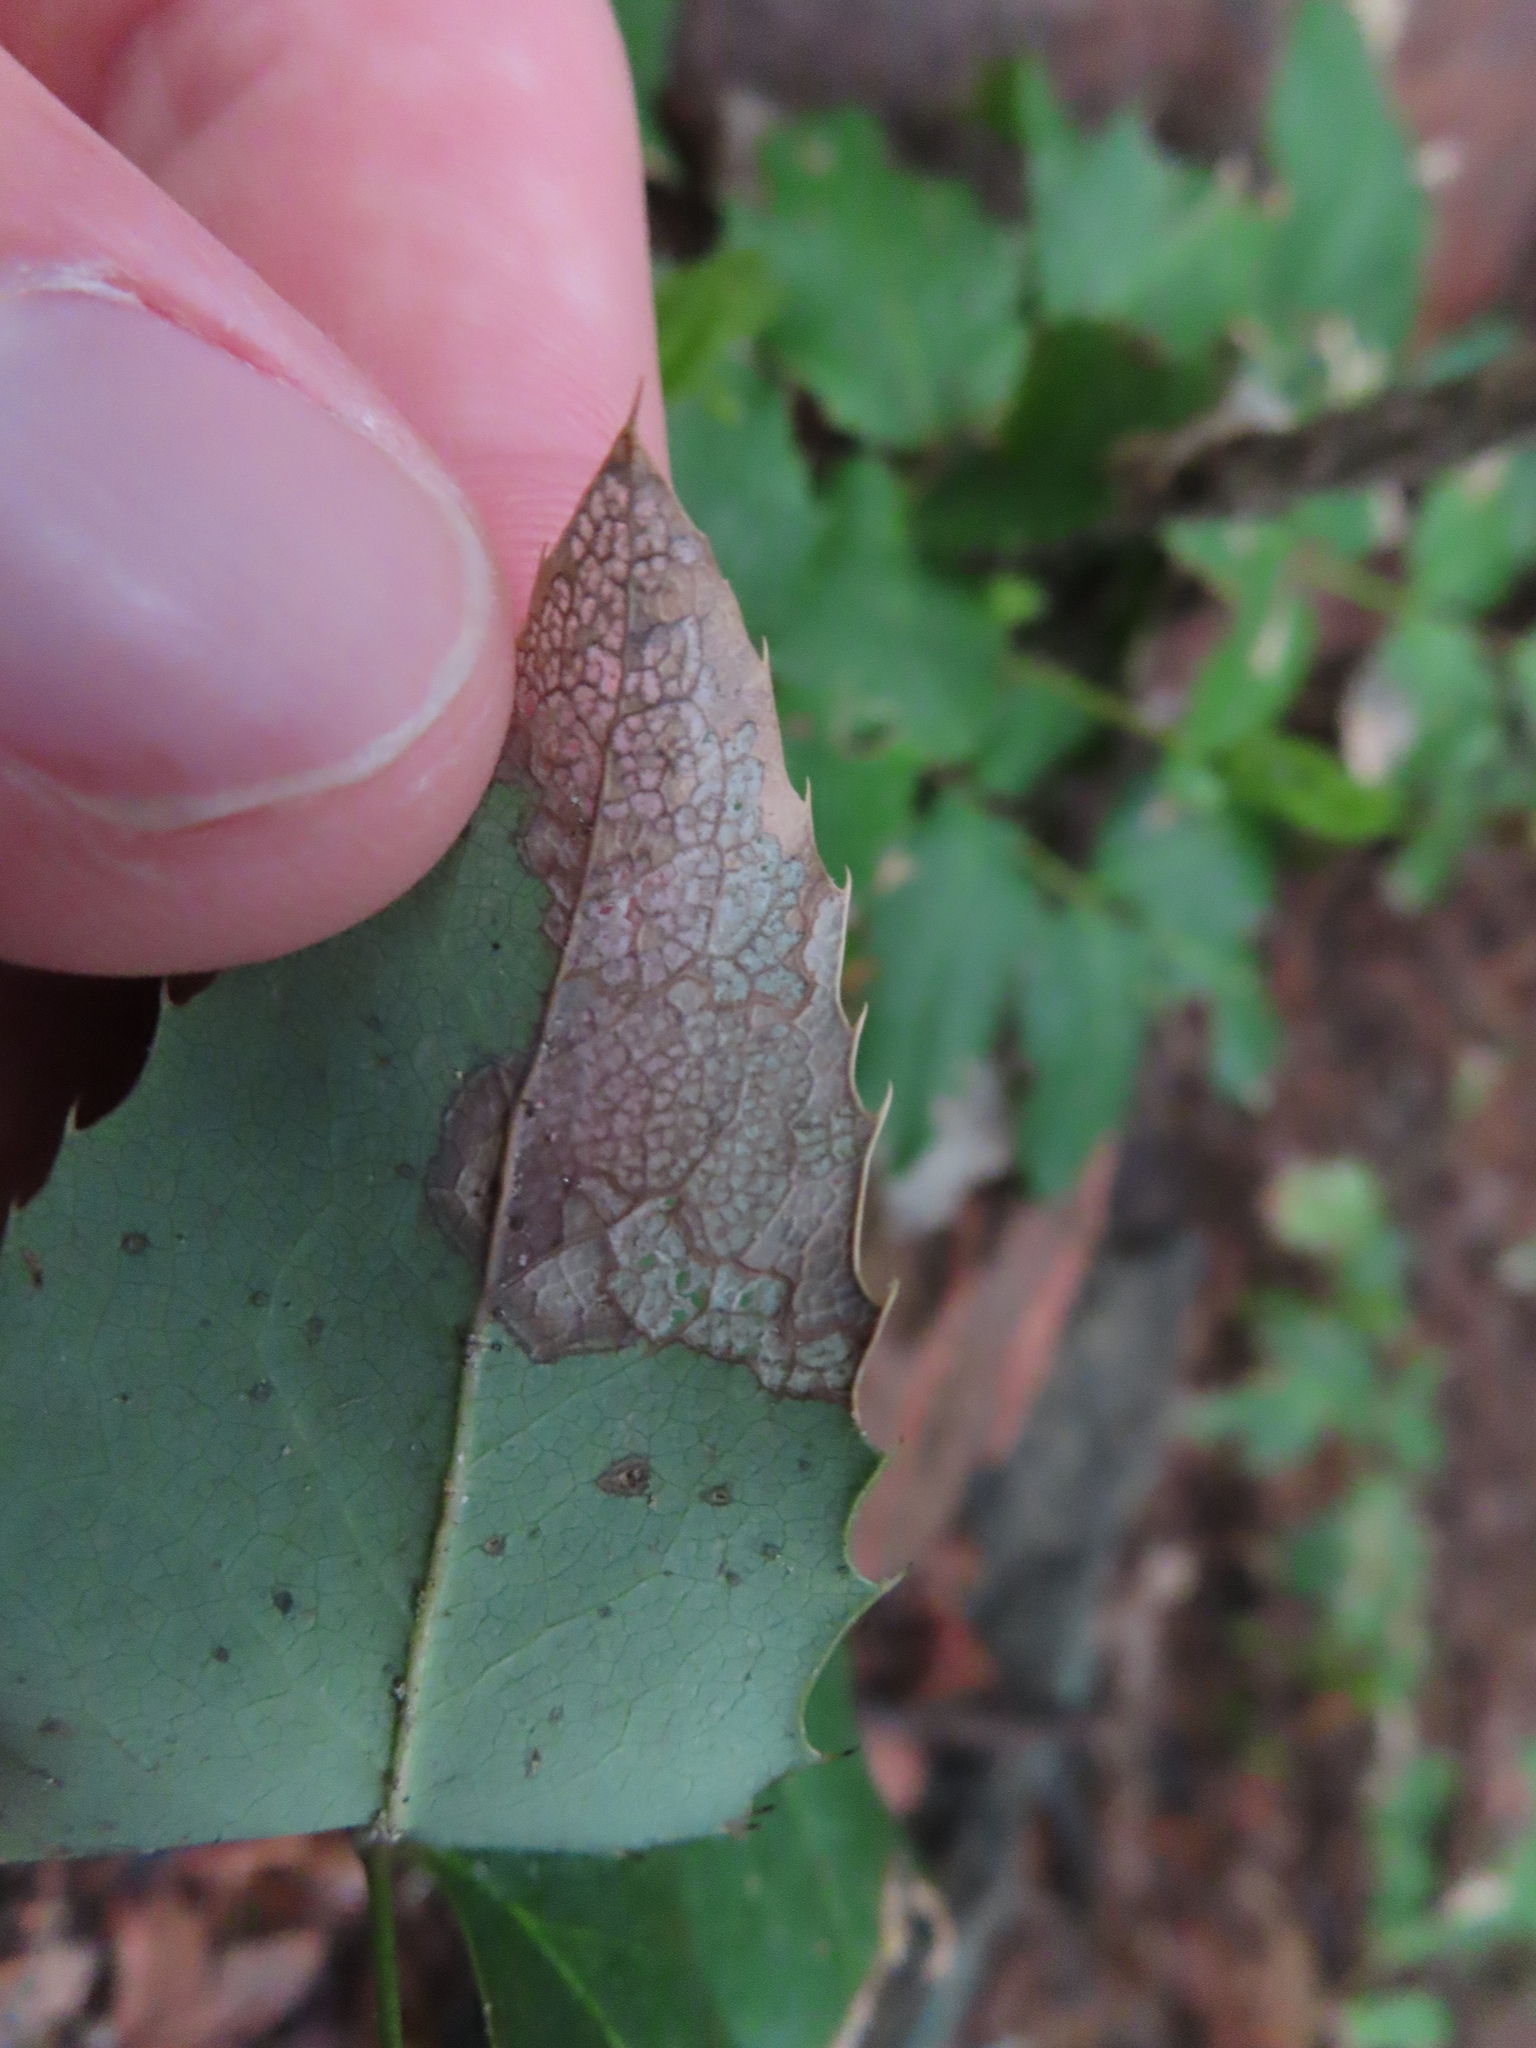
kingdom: Plantae
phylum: Tracheophyta
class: Magnoliopsida
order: Ranunculales
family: Berberidaceae
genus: Mahonia
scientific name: Mahonia repens
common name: Creeping oregon-grape
